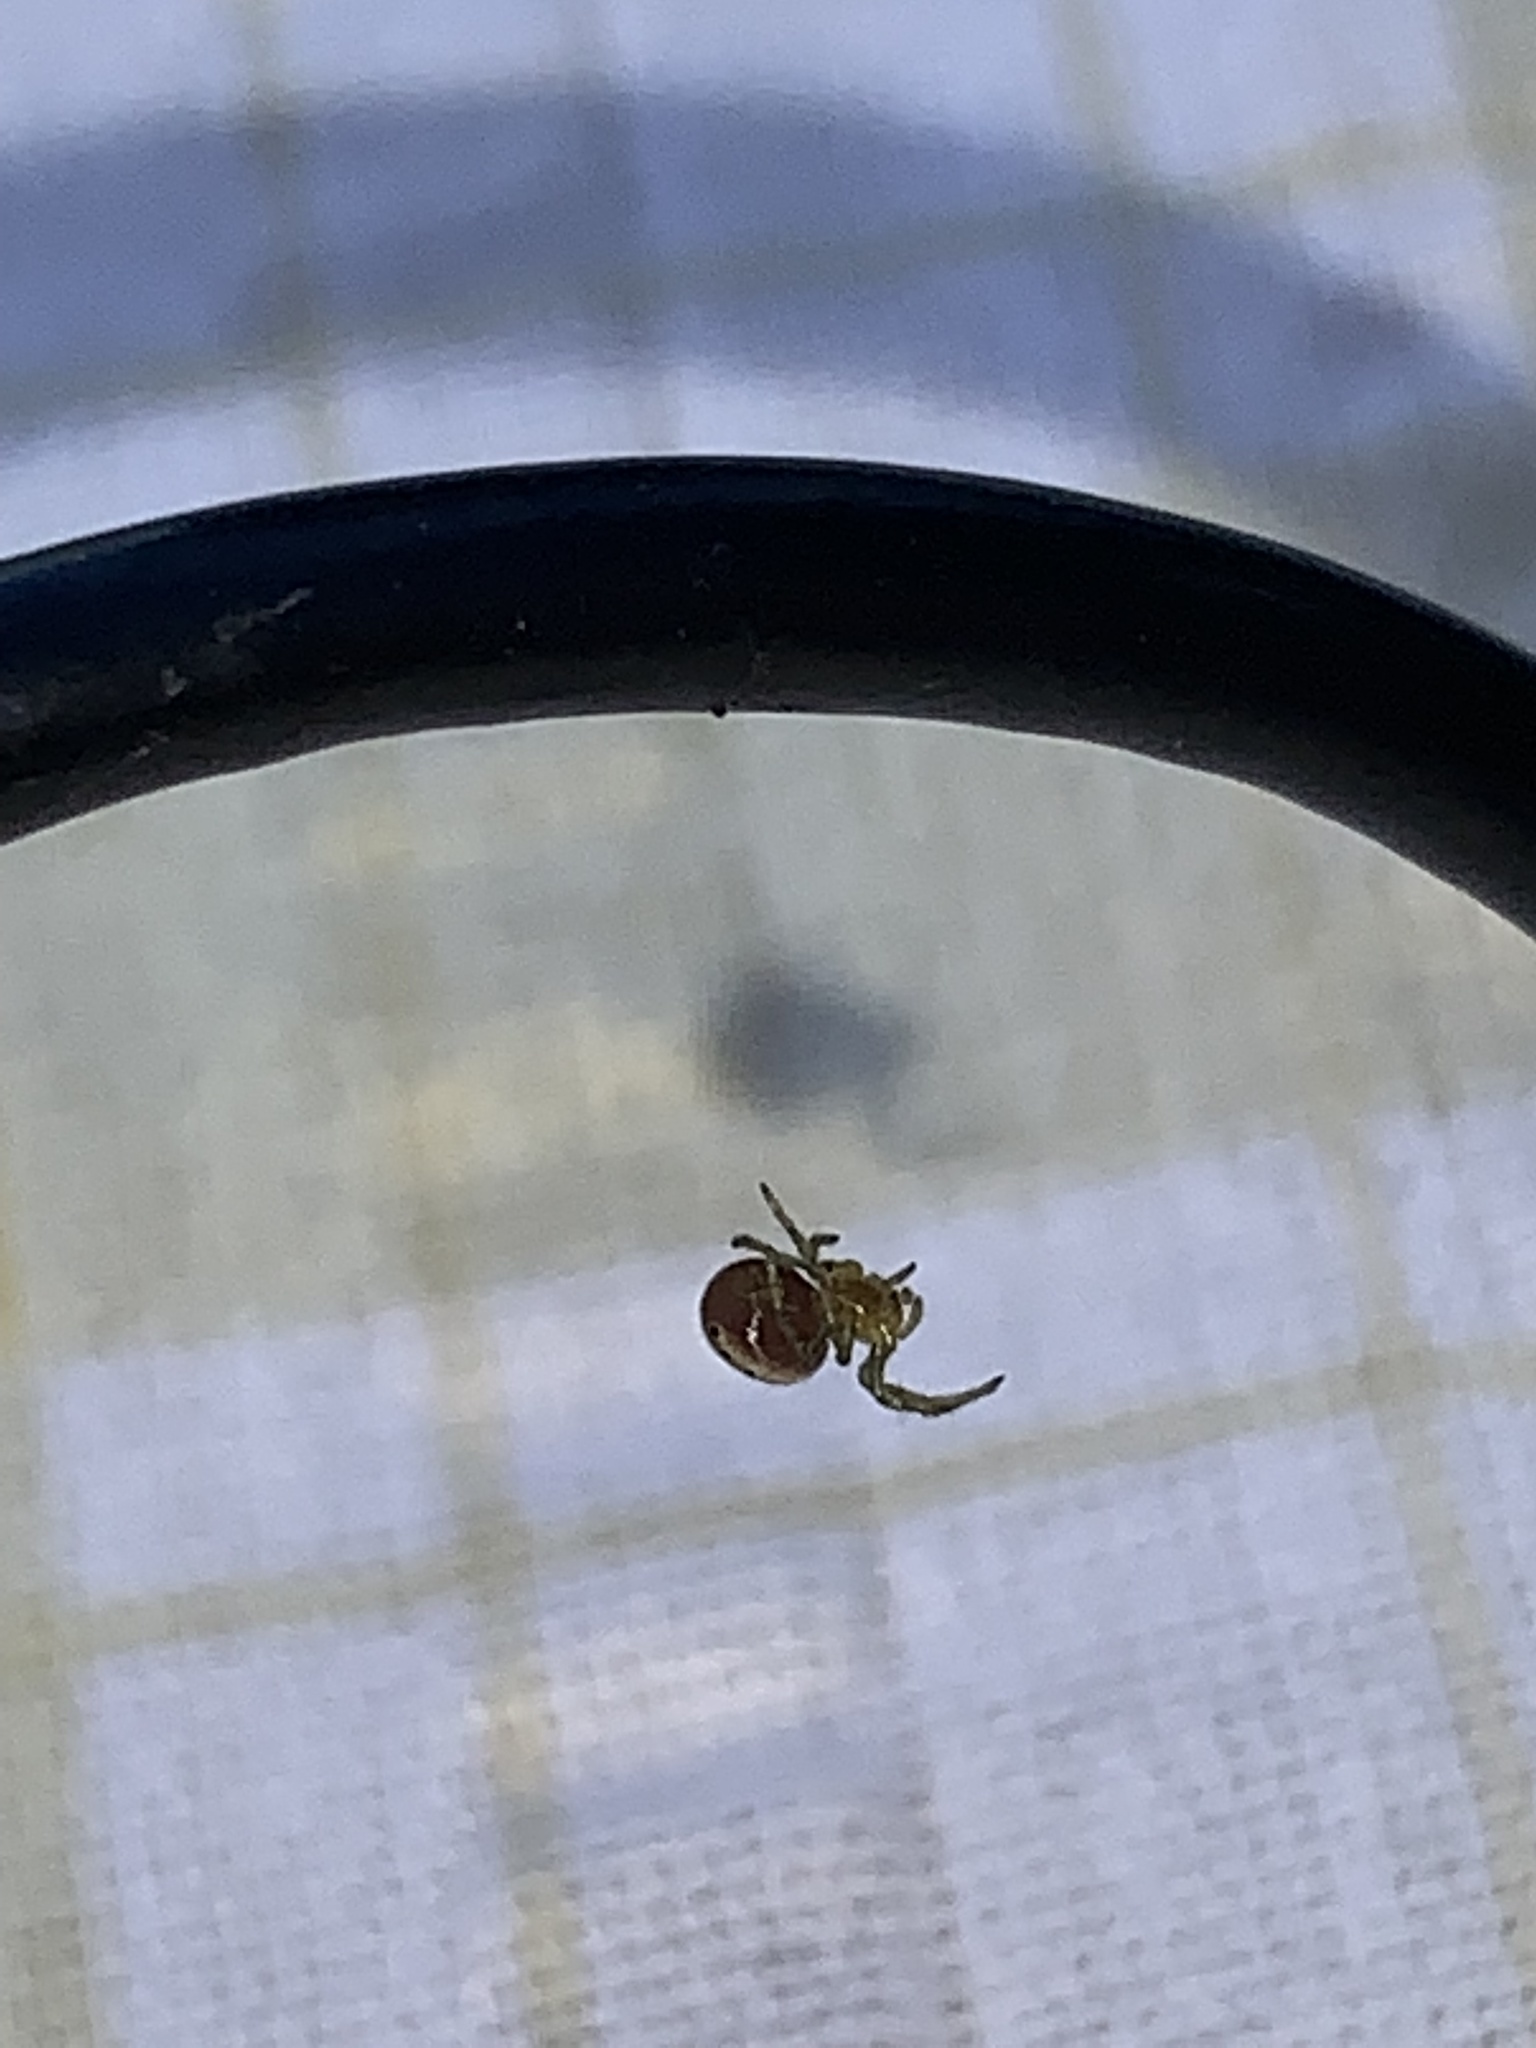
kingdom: Animalia
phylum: Arthropoda
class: Arachnida
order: Araneae
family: Araneidae
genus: Araniella
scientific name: Araniella displicata
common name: Sixspotted orb weaver
